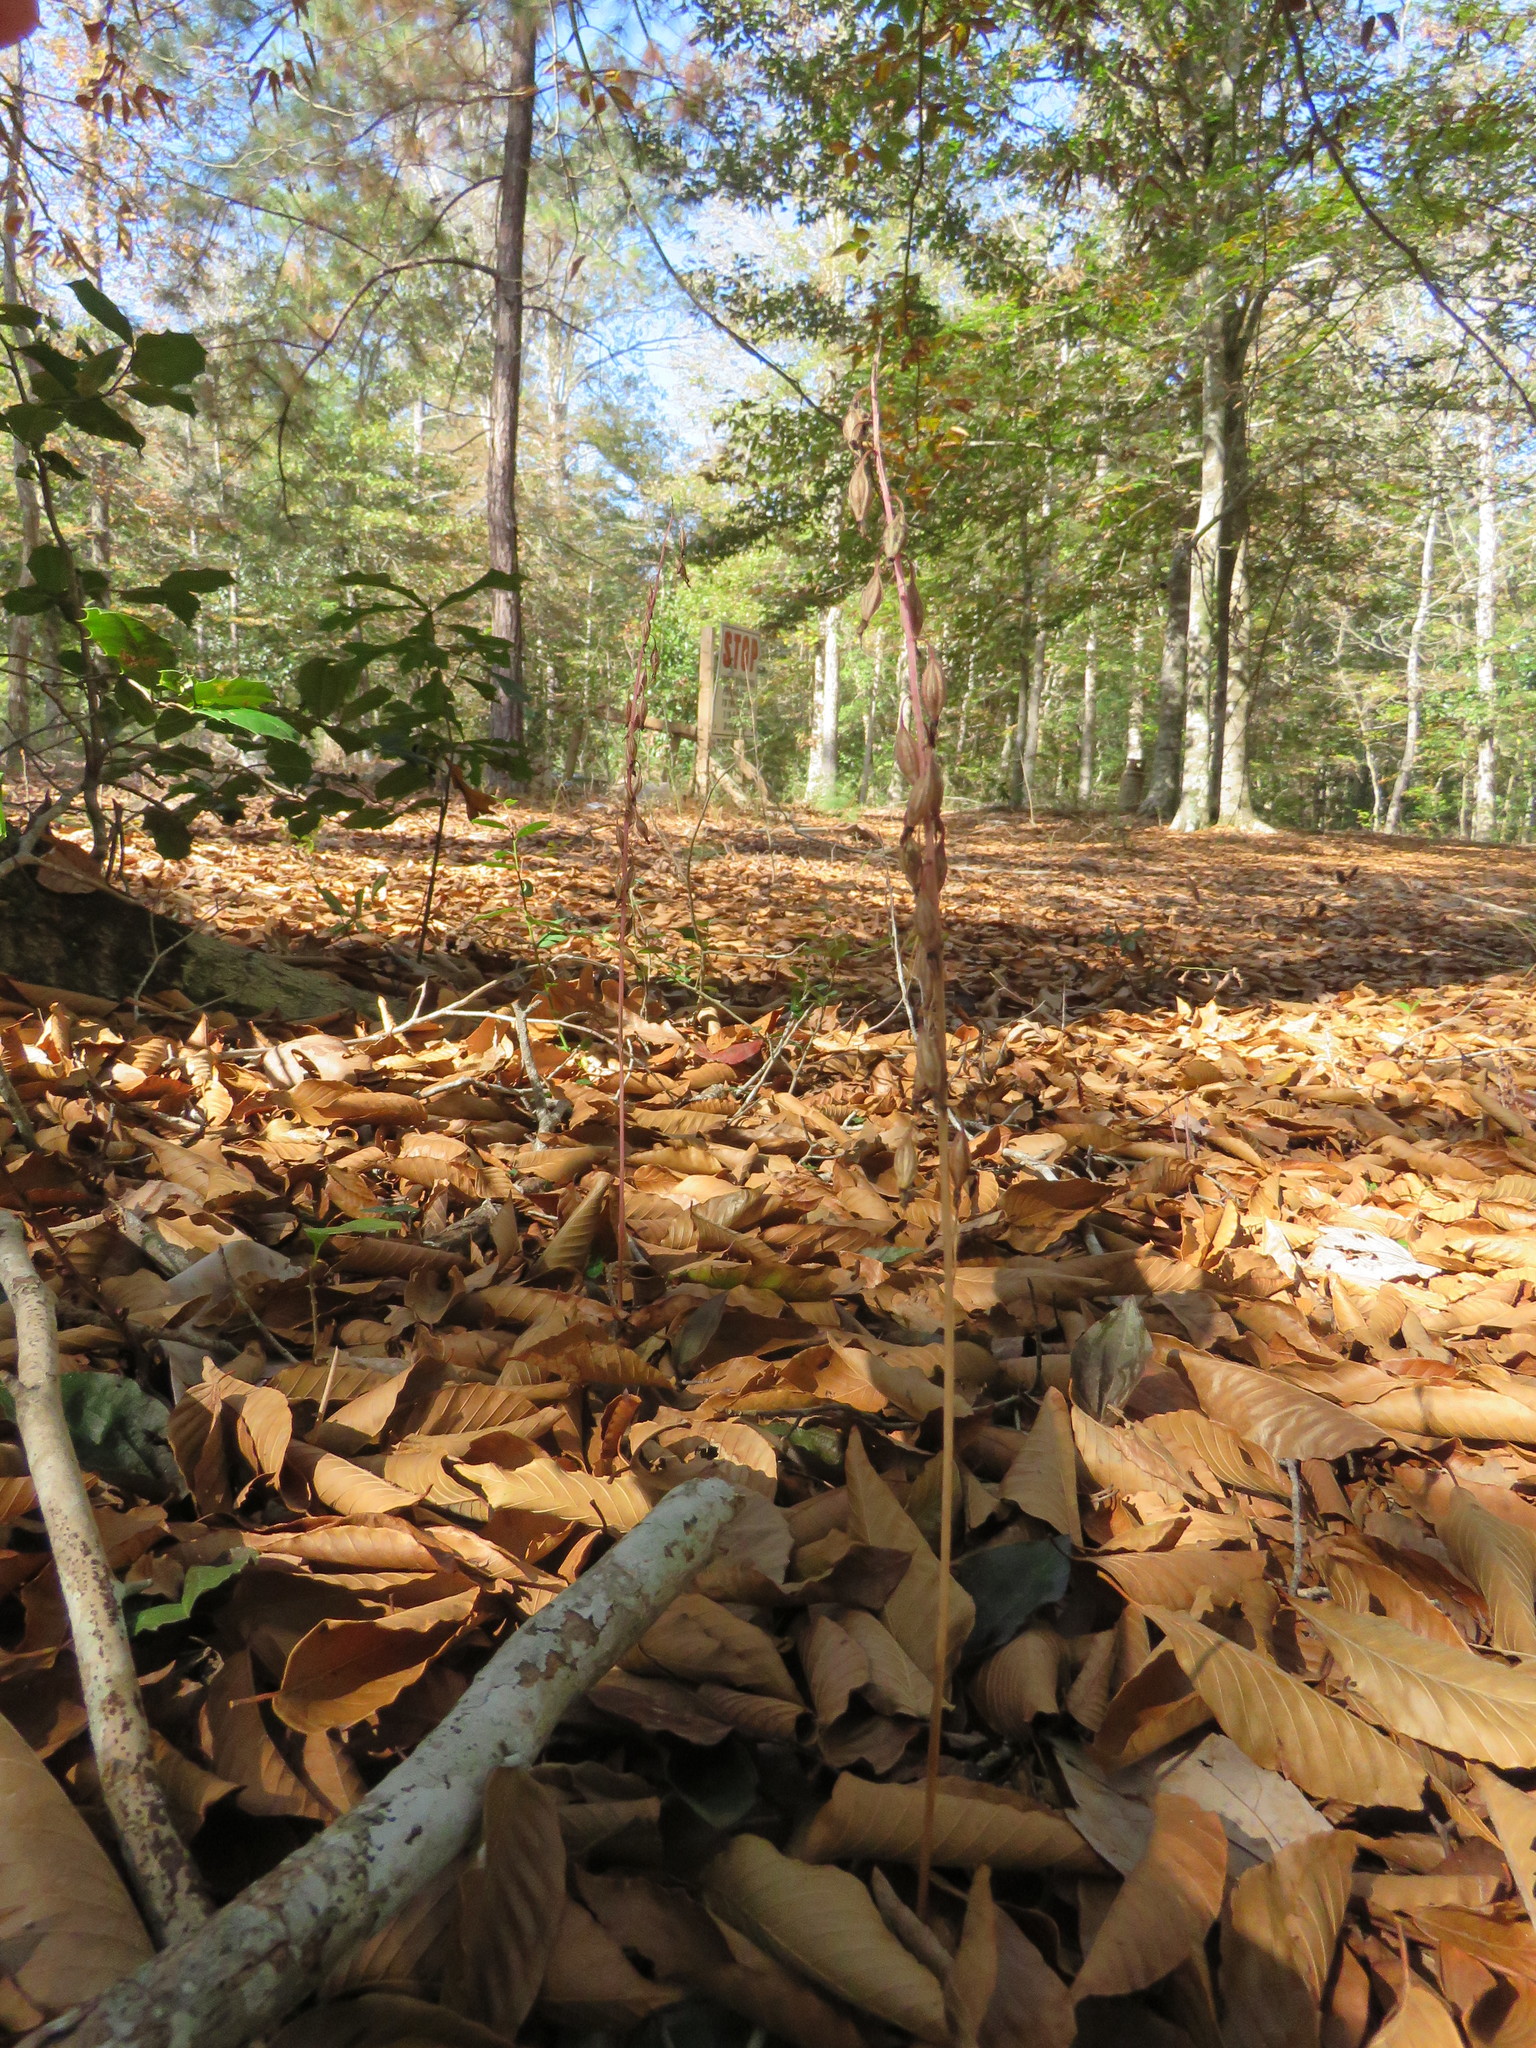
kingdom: Plantae
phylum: Tracheophyta
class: Liliopsida
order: Asparagales
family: Orchidaceae
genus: Tipularia
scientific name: Tipularia discolor
